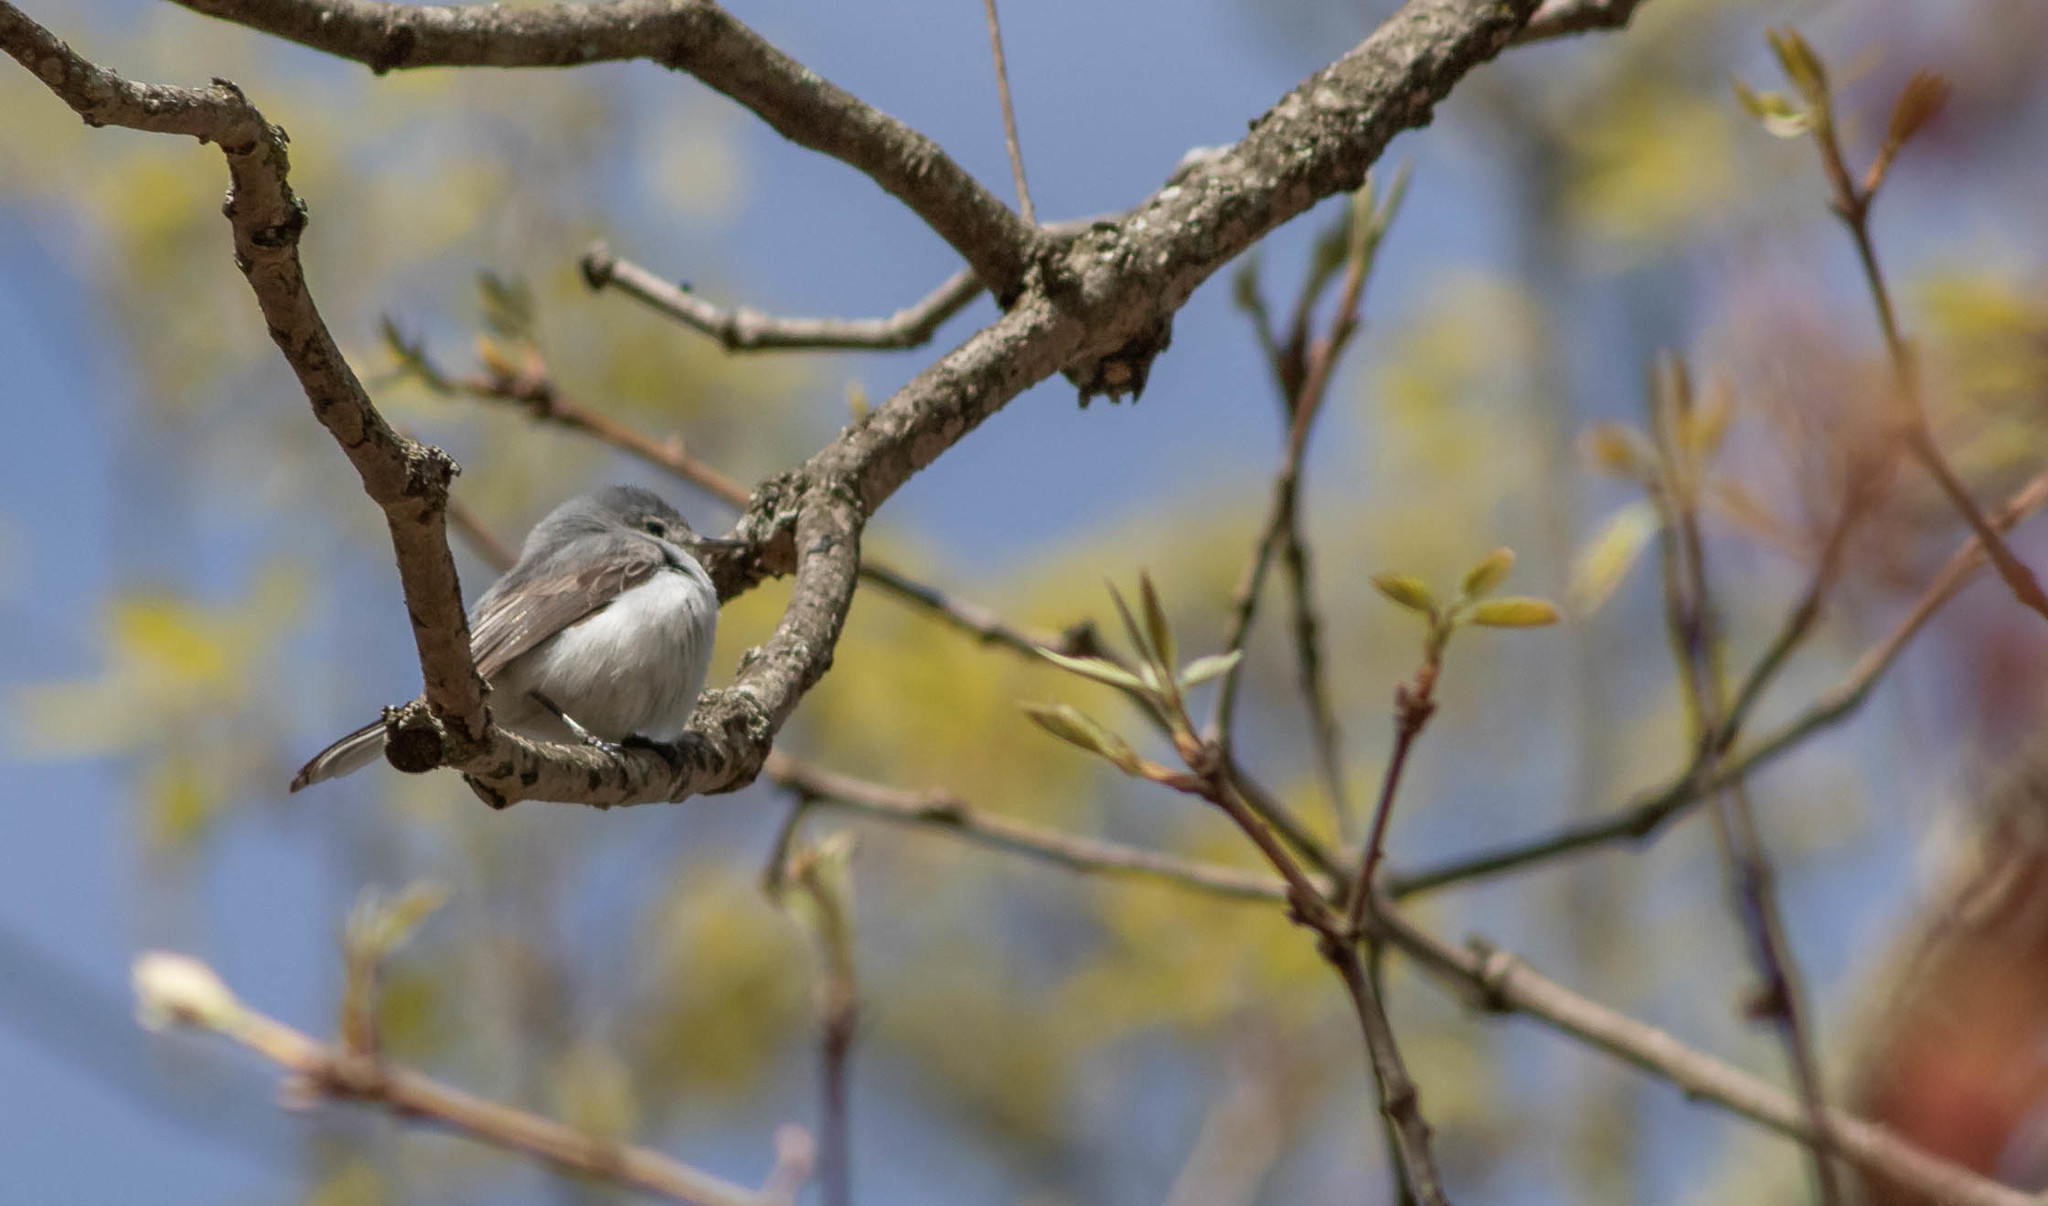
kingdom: Animalia
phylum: Chordata
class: Aves
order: Passeriformes
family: Polioptilidae
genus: Polioptila
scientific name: Polioptila caerulea
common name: Blue-gray gnatcatcher
